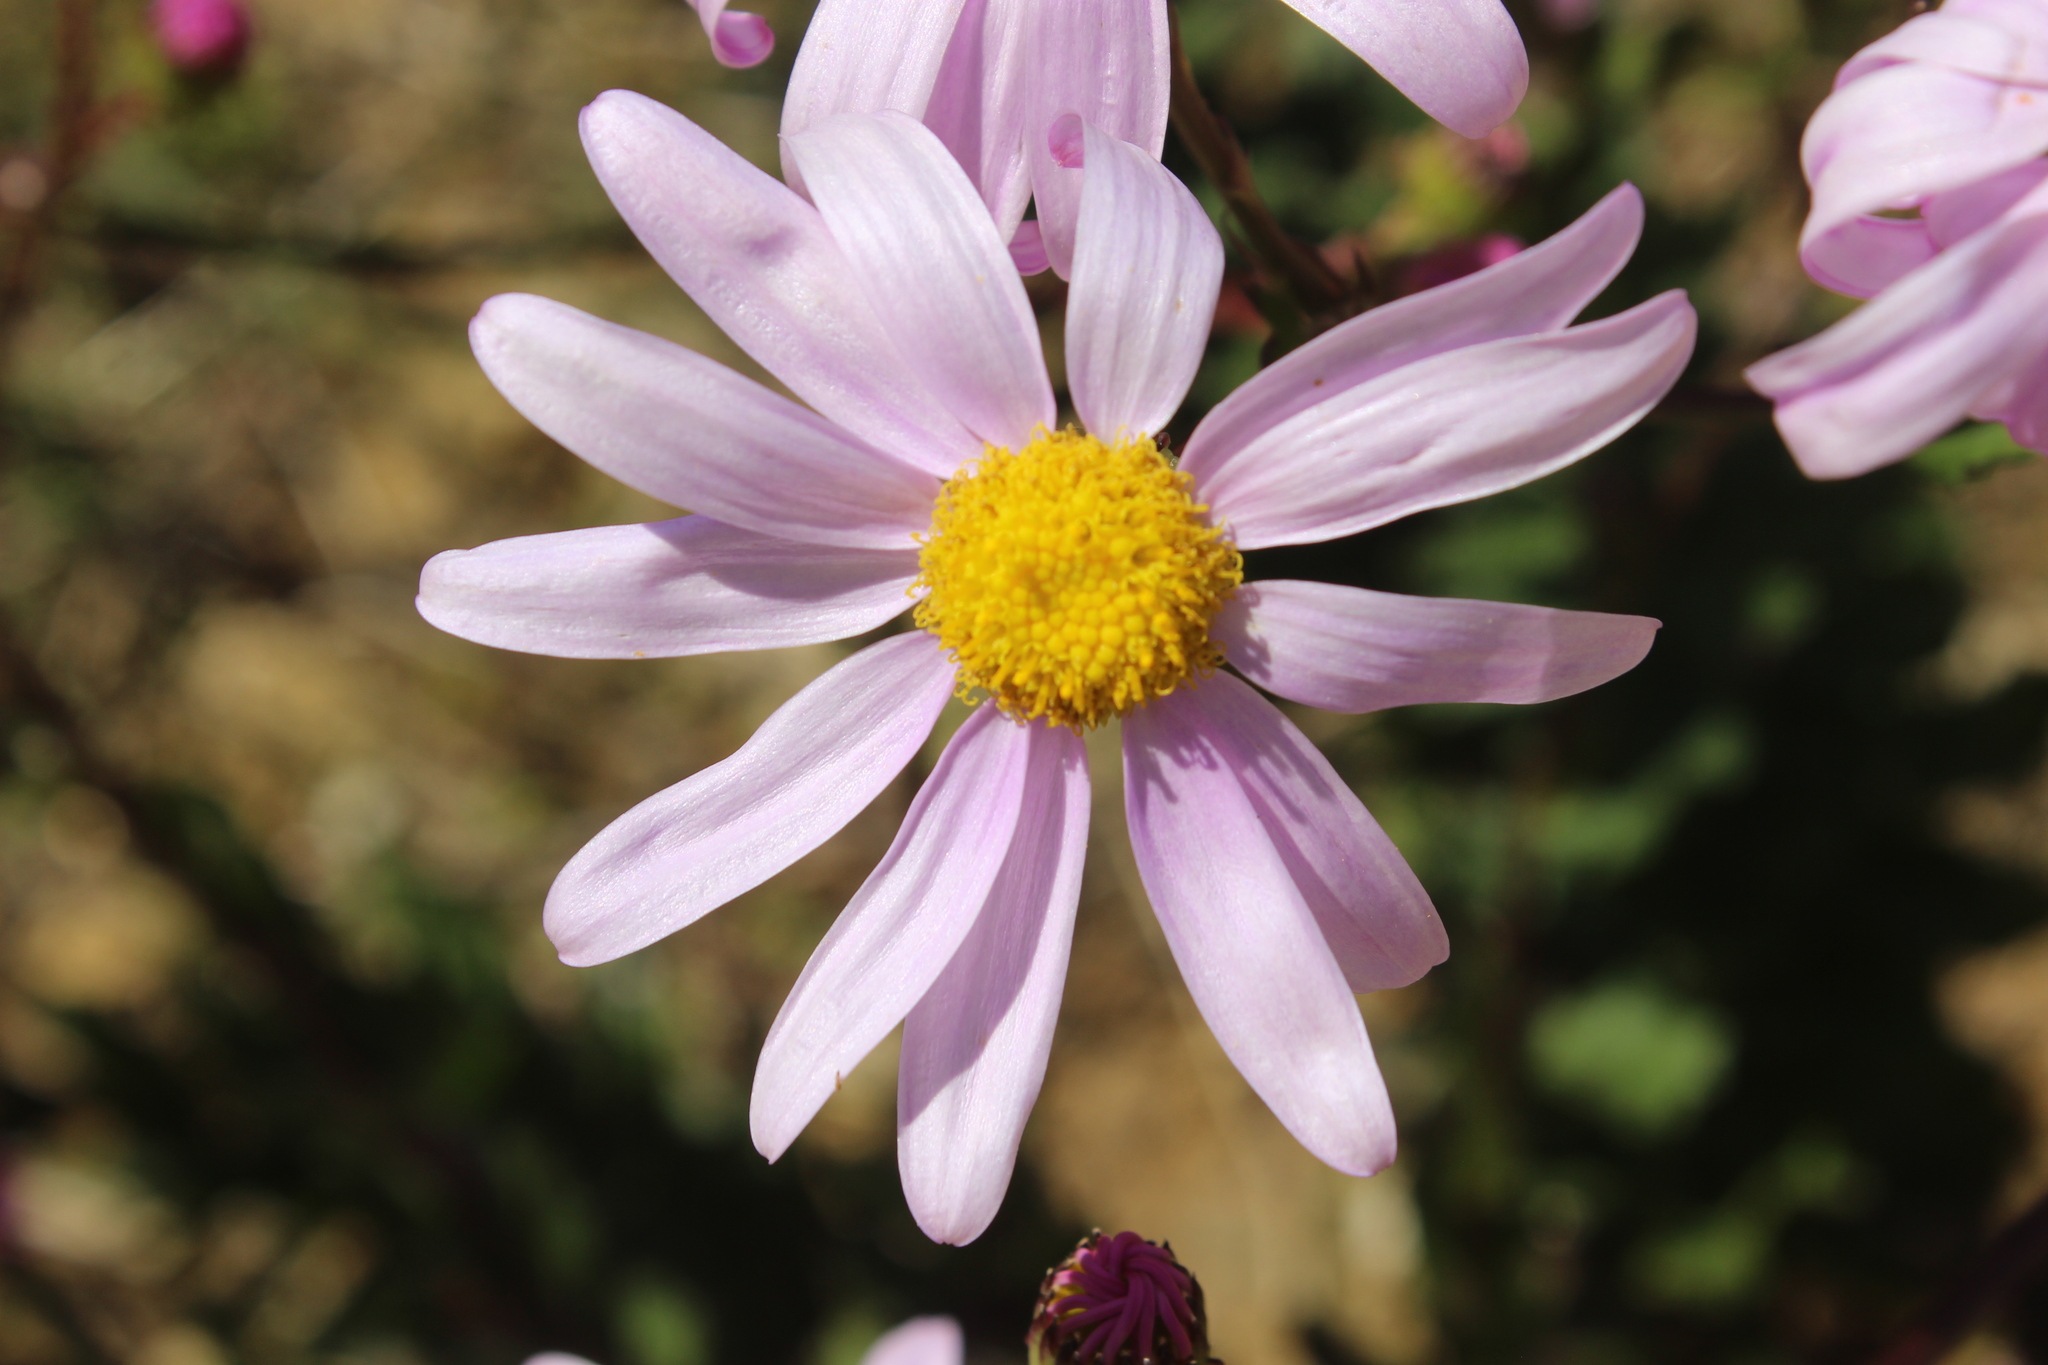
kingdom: Plantae
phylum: Tracheophyta
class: Magnoliopsida
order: Asterales
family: Asteraceae
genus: Senecio
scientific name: Senecio glastifolius
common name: Woad-leaved ragwort
